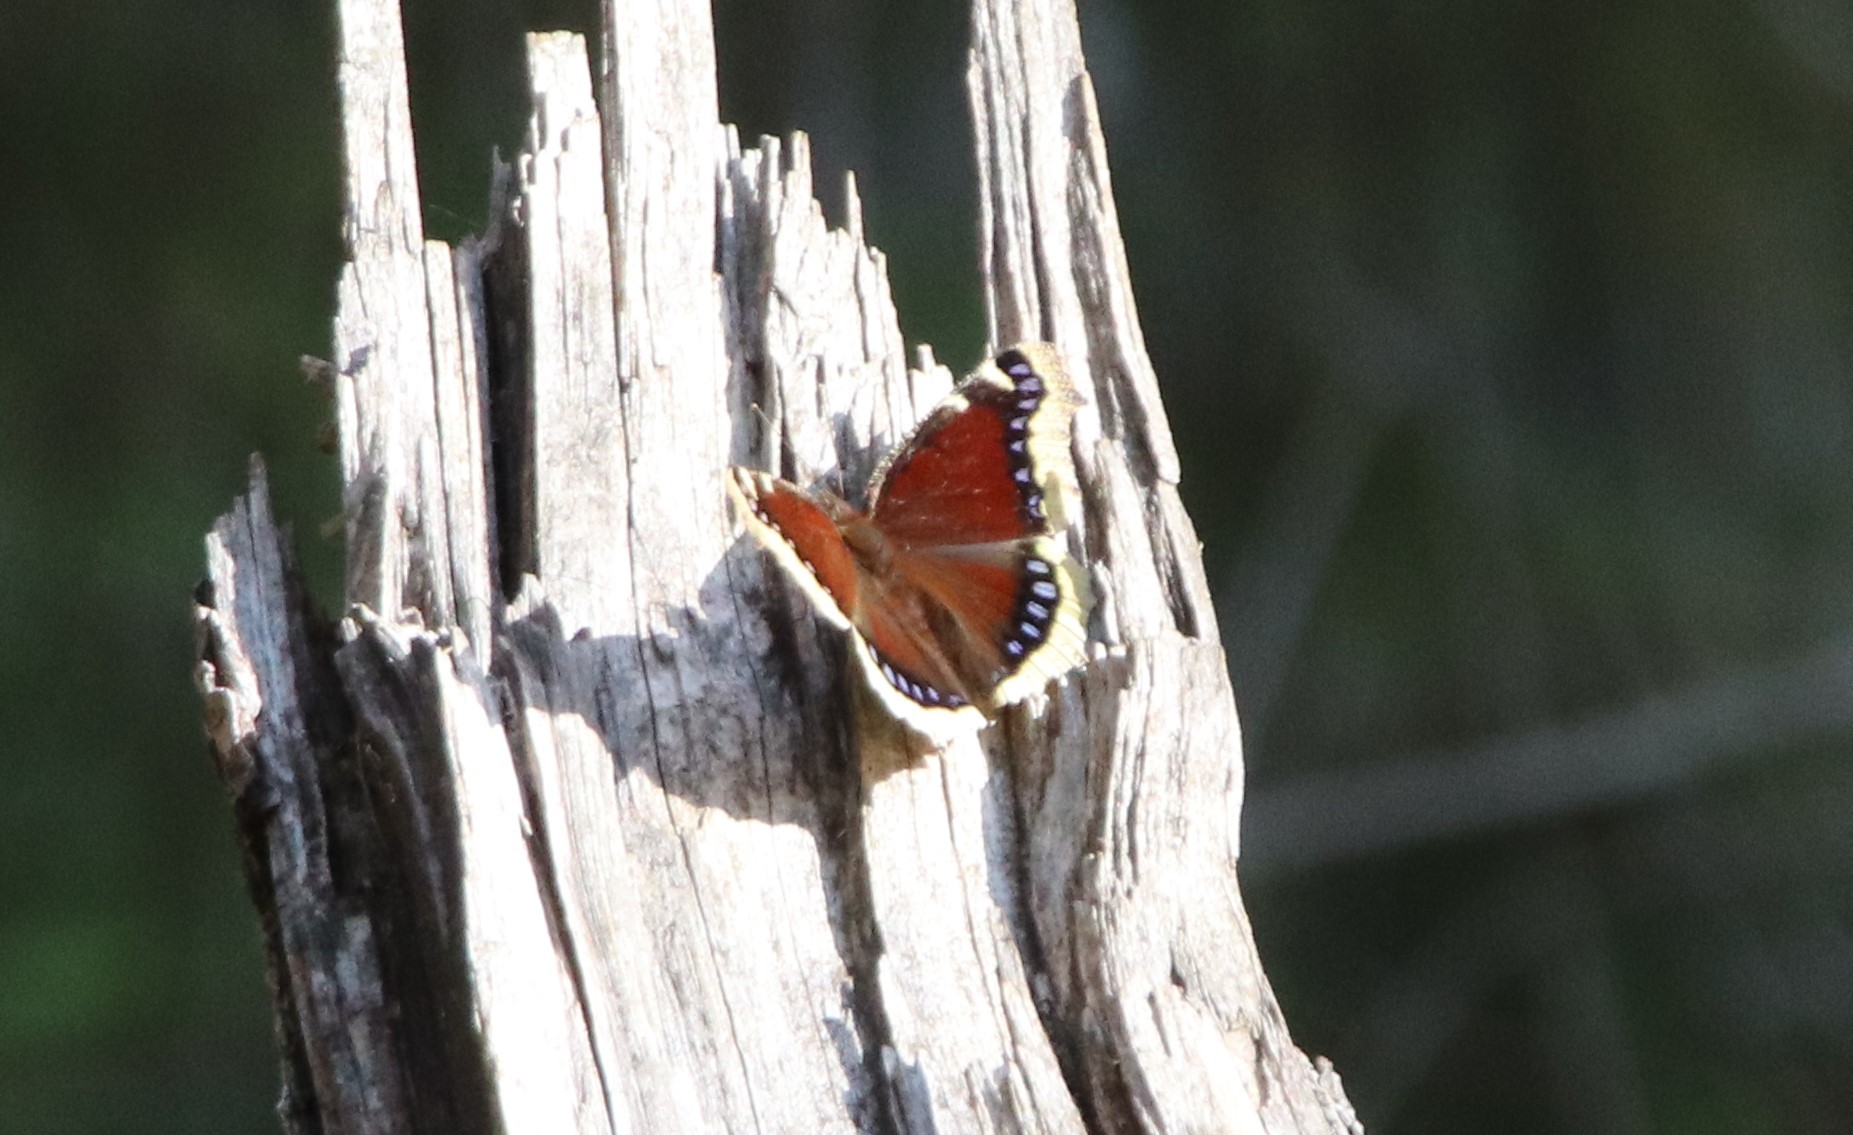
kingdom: Animalia
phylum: Arthropoda
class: Insecta
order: Lepidoptera
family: Nymphalidae
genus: Nymphalis
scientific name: Nymphalis antiopa
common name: Camberwell beauty
